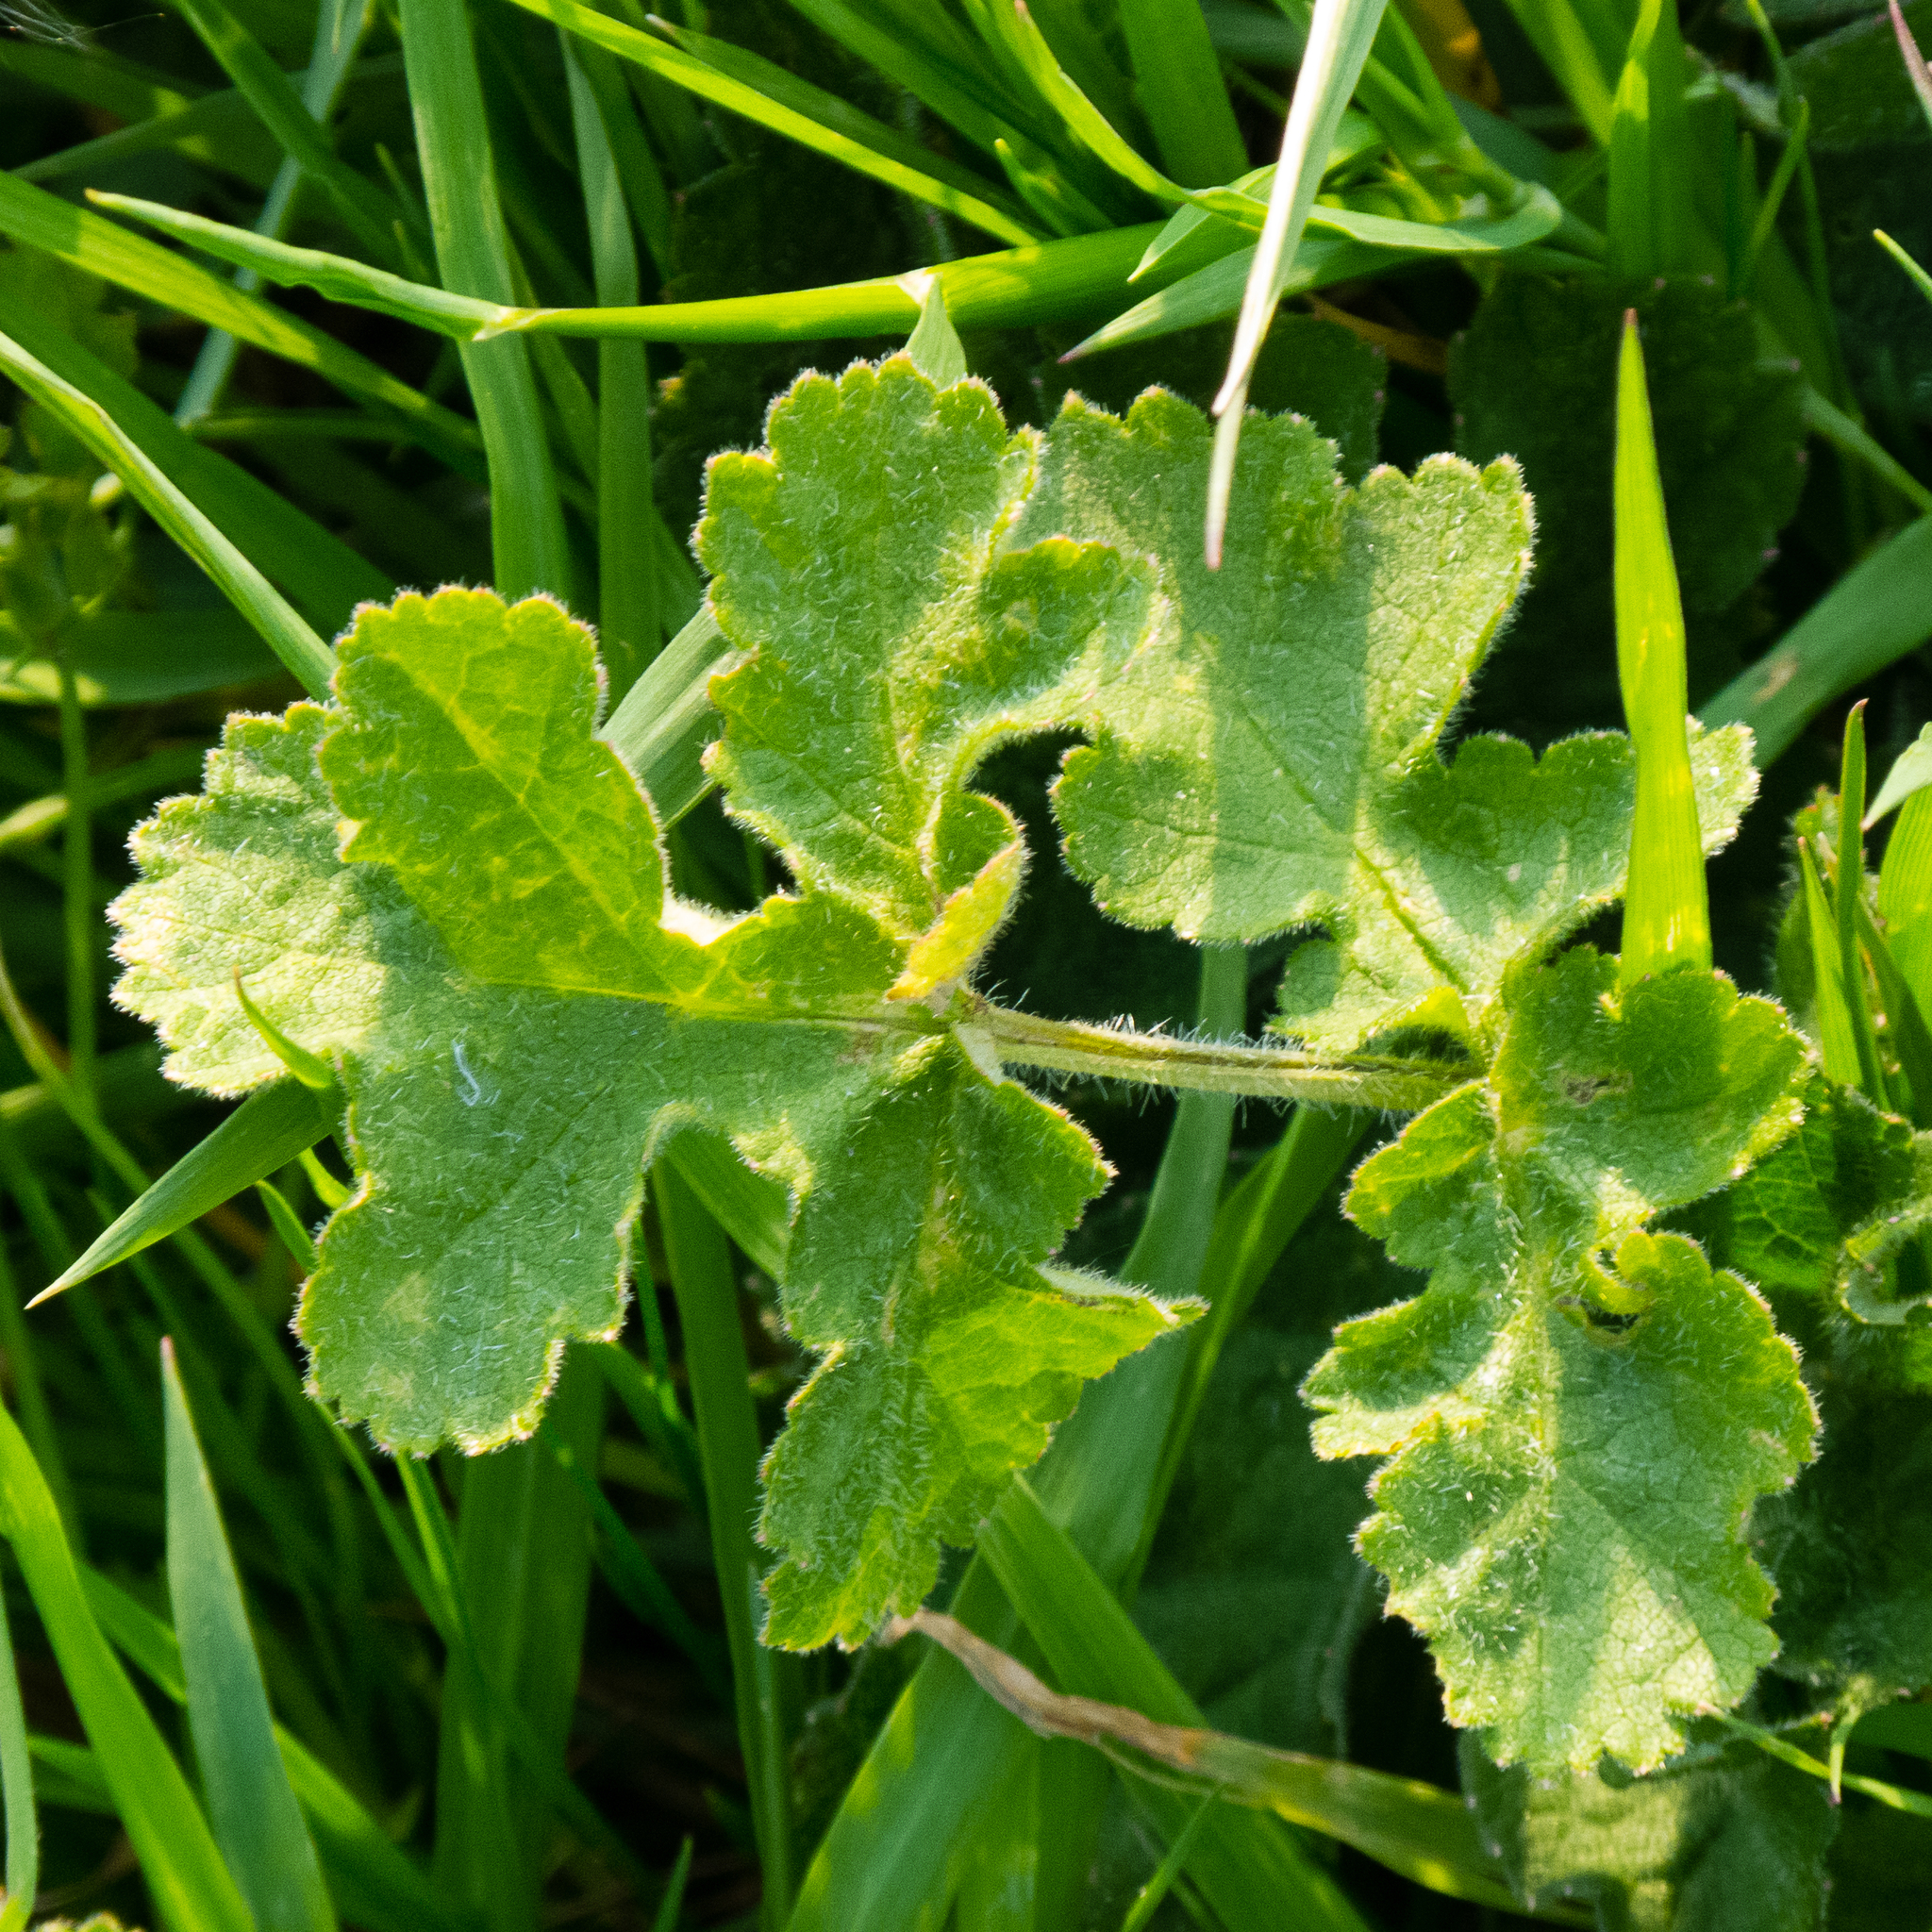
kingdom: Plantae
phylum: Tracheophyta
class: Magnoliopsida
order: Apiales
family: Apiaceae
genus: Heracleum
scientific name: Heracleum sphondylium
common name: Hogweed
